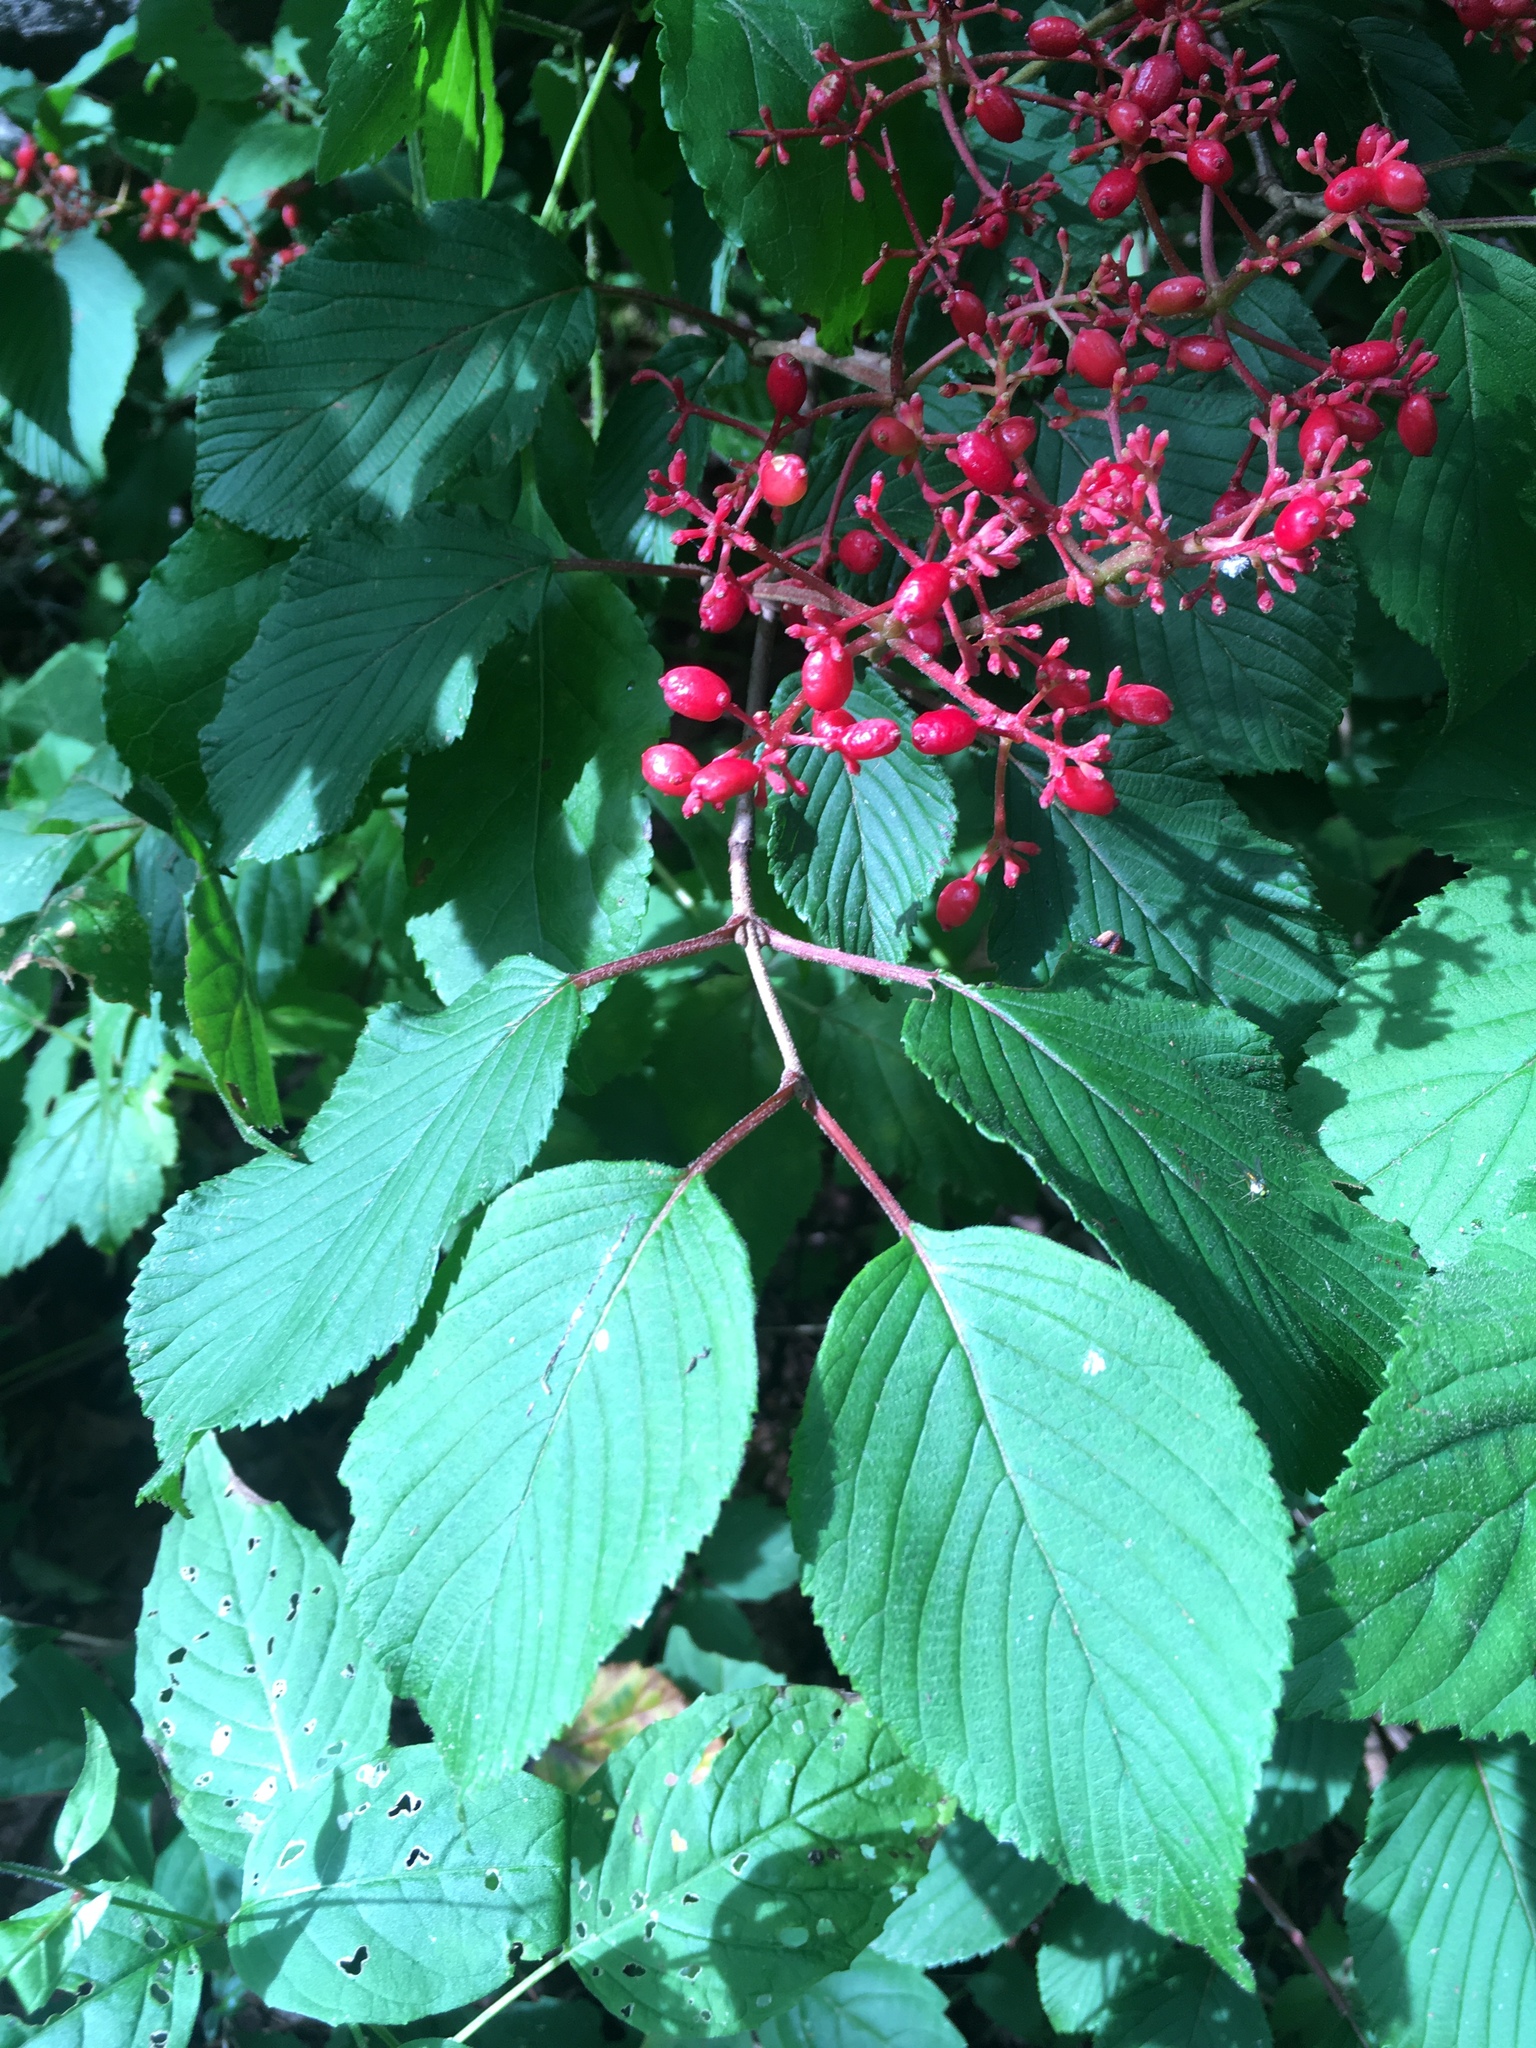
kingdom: Plantae
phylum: Tracheophyta
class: Magnoliopsida
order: Dipsacales
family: Viburnaceae
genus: Viburnum
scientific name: Viburnum plicatum
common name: Japanese snowball
